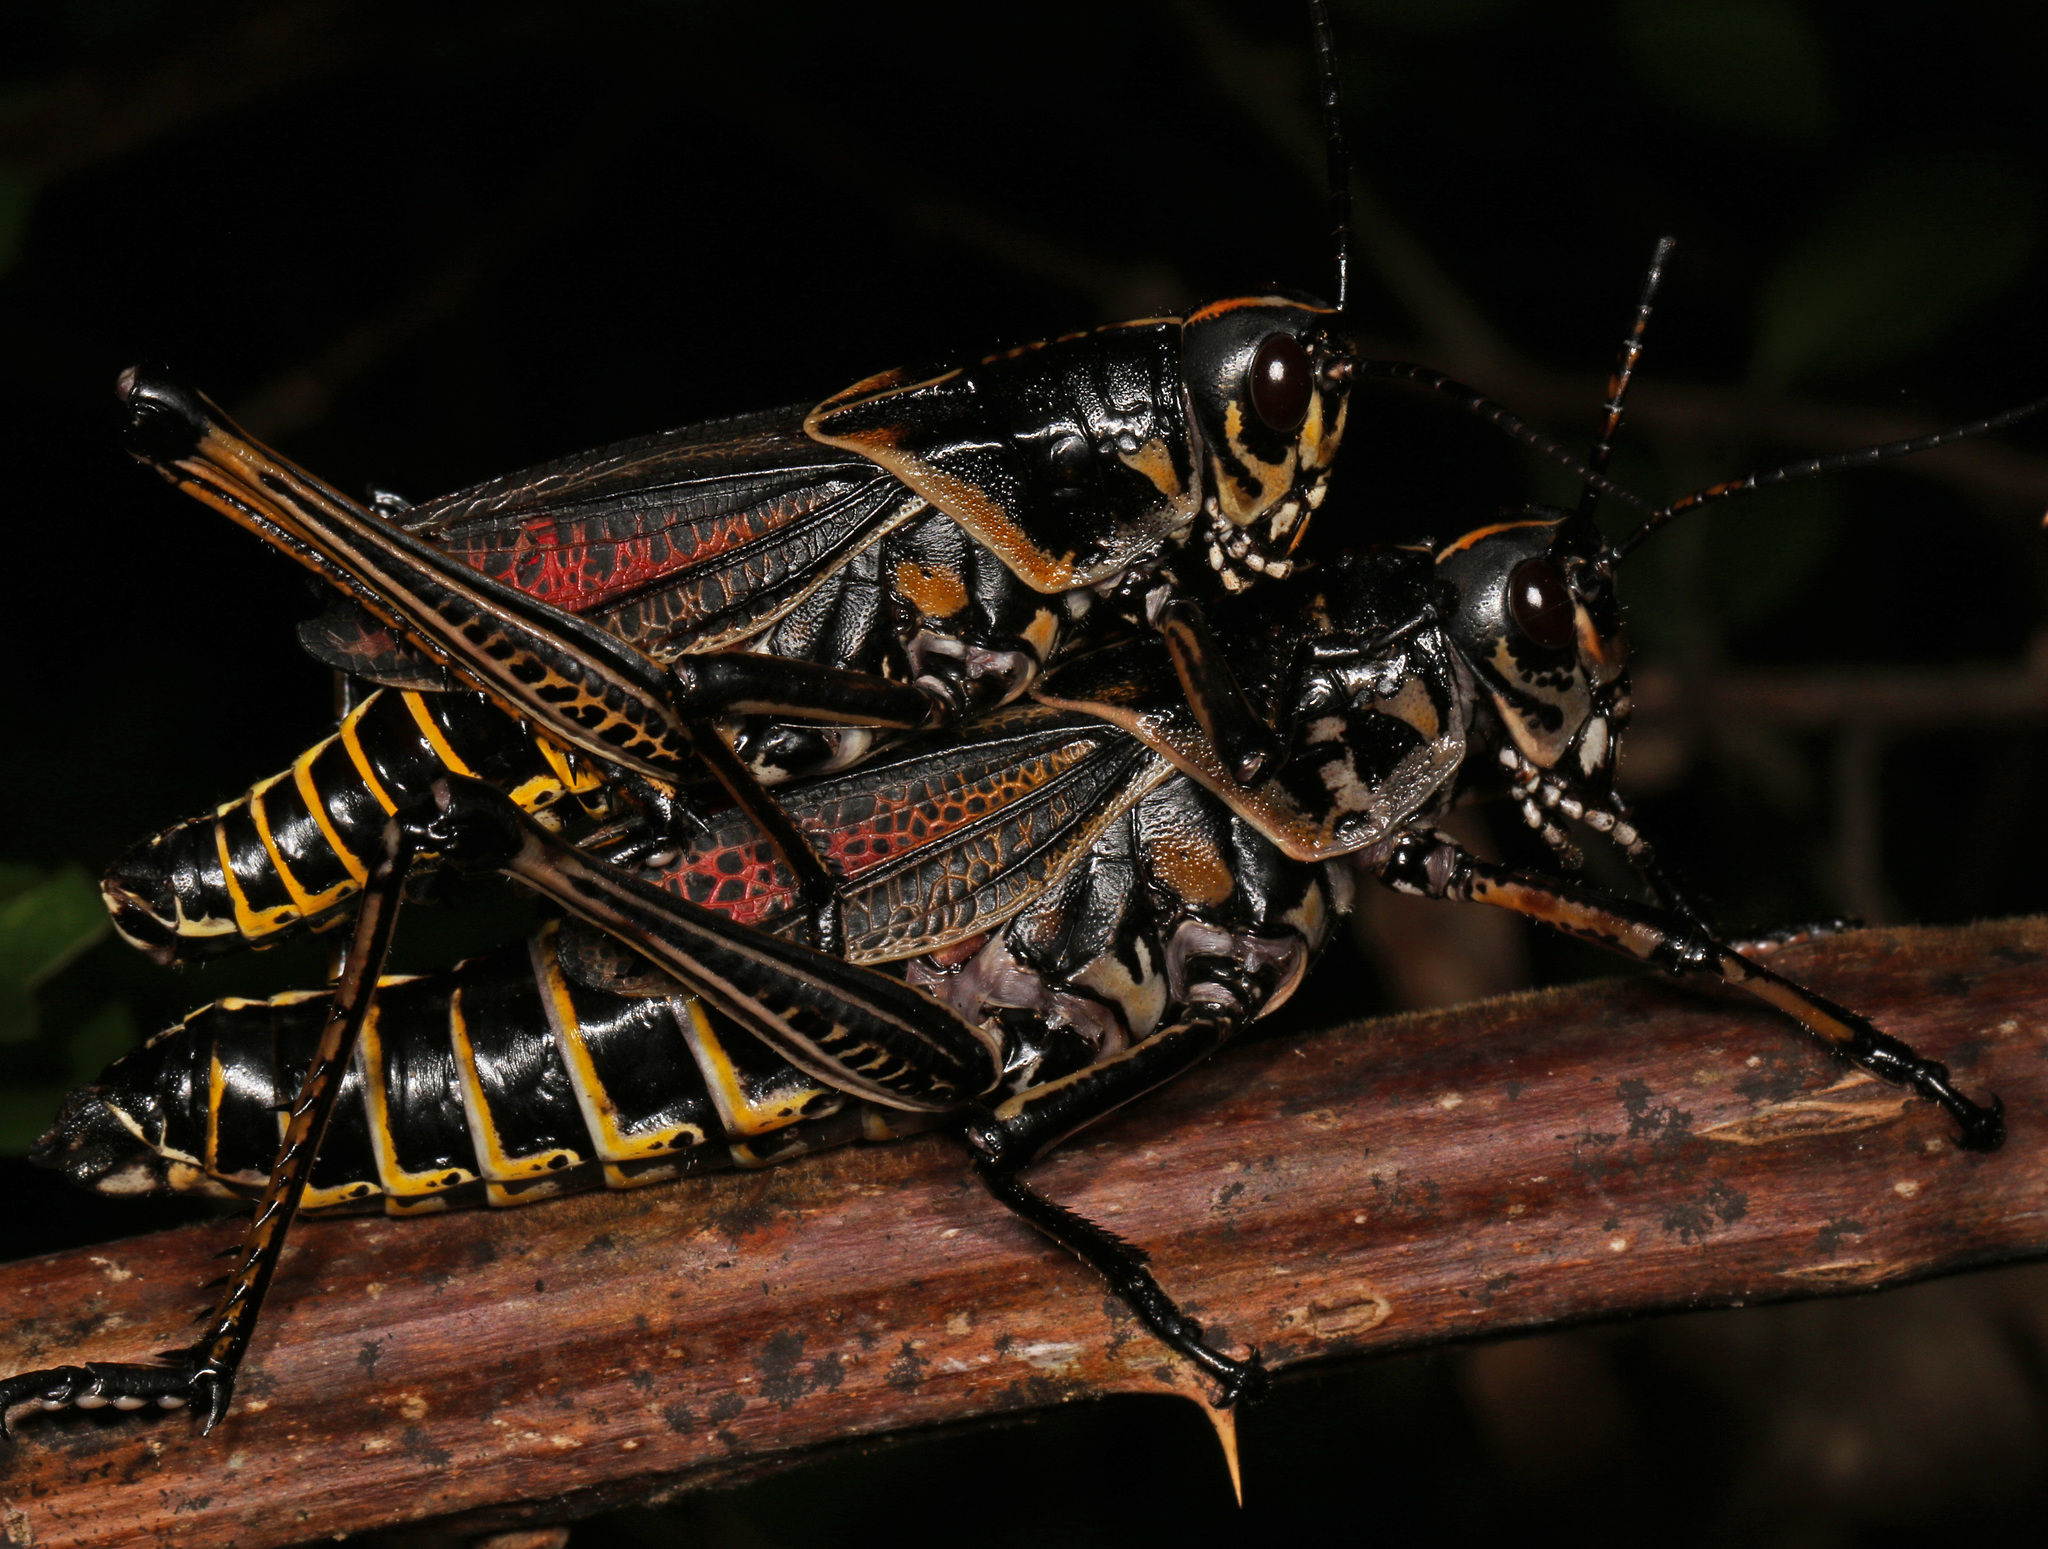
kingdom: Animalia
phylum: Arthropoda
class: Insecta
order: Orthoptera
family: Romaleidae
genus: Romalea
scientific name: Romalea microptera
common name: Eastern lubber grasshopper
